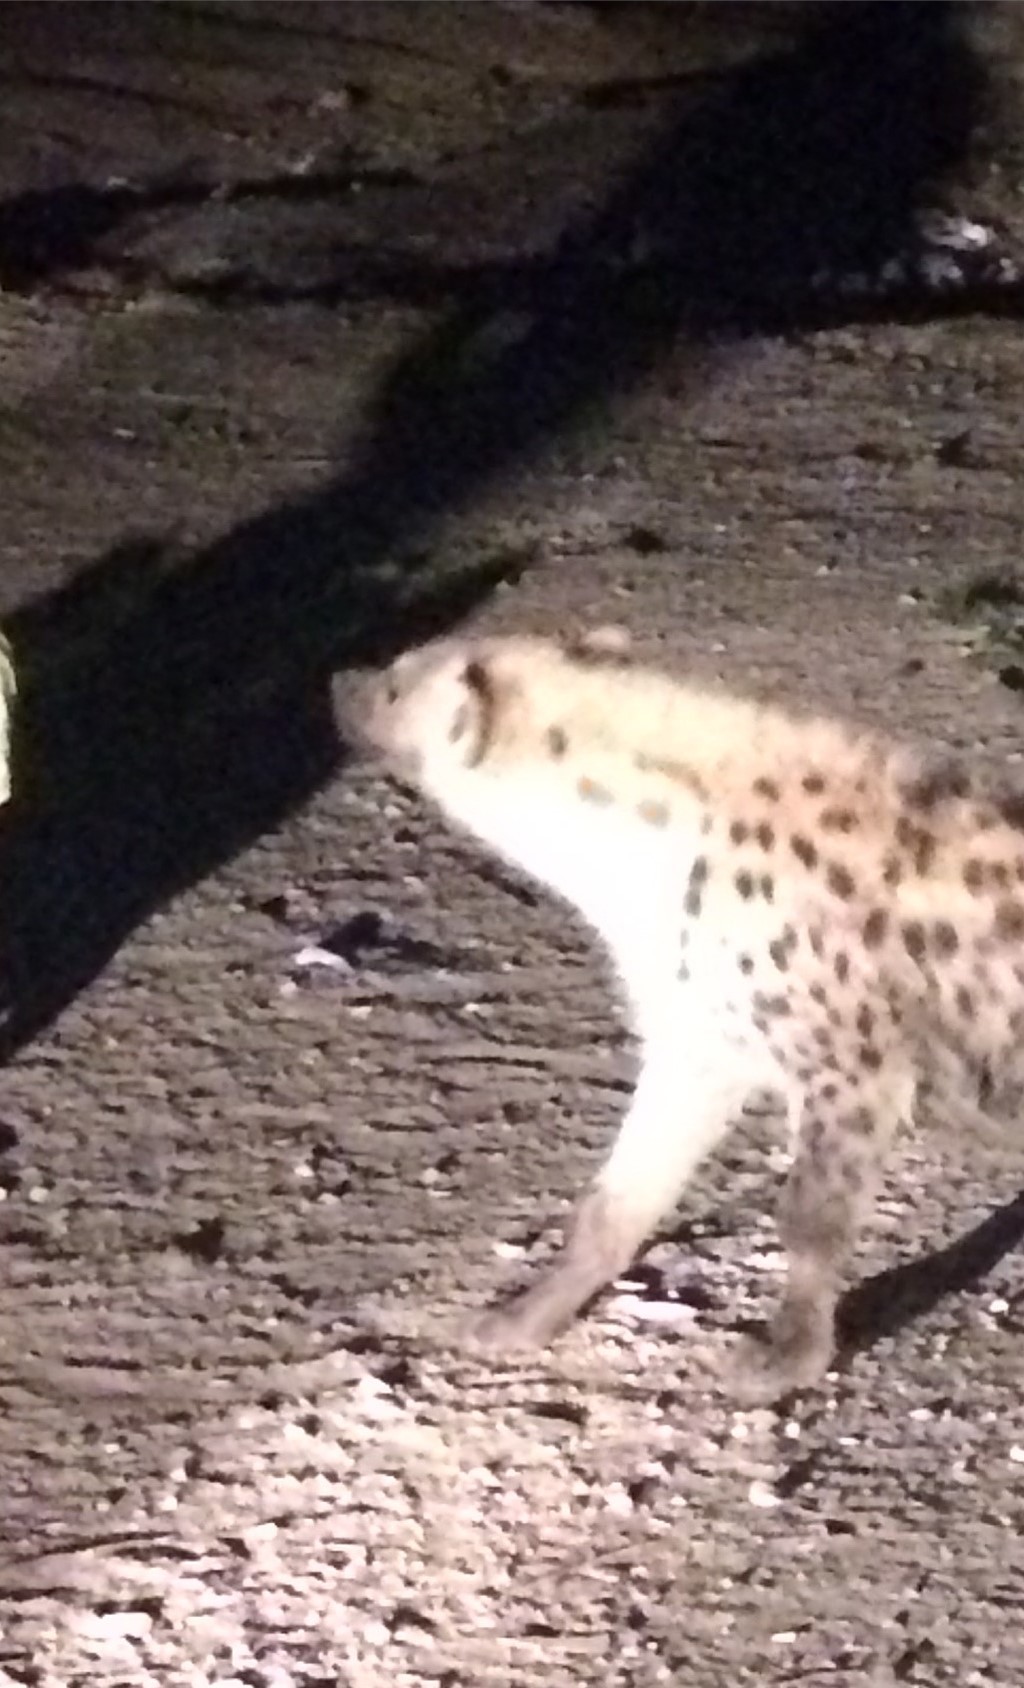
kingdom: Animalia
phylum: Chordata
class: Mammalia
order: Carnivora
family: Hyaenidae
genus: Crocuta
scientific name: Crocuta crocuta
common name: Spotted hyaena
